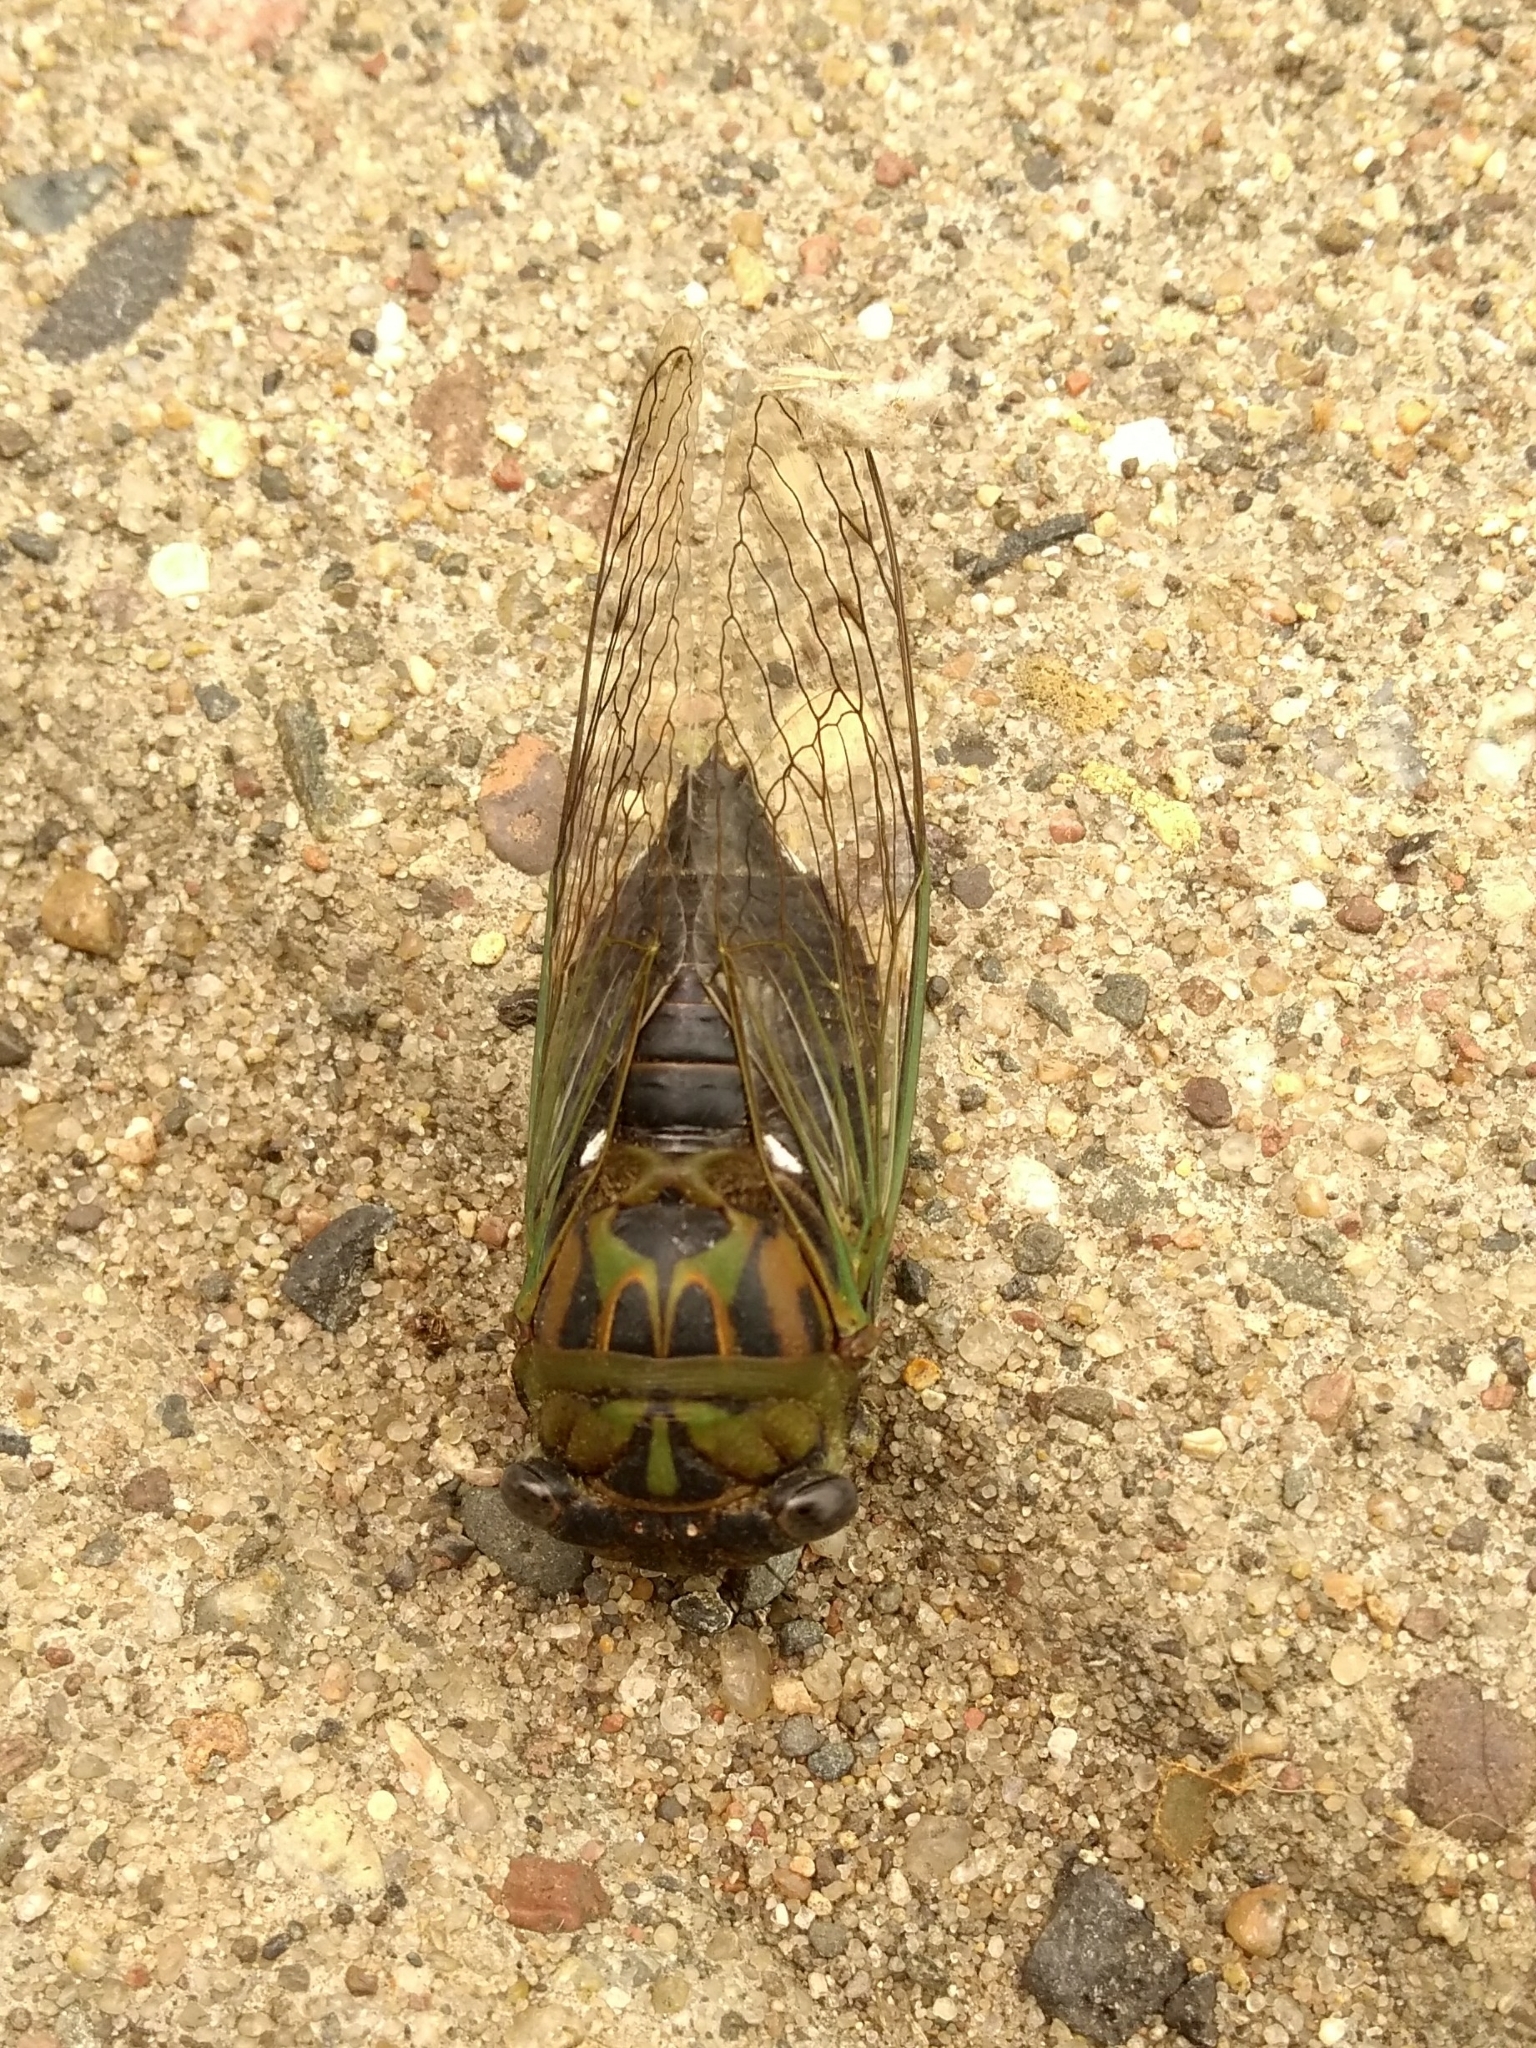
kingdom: Animalia
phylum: Arthropoda
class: Insecta
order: Hemiptera
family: Cicadidae
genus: Neotibicen
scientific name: Neotibicen pruinosus
